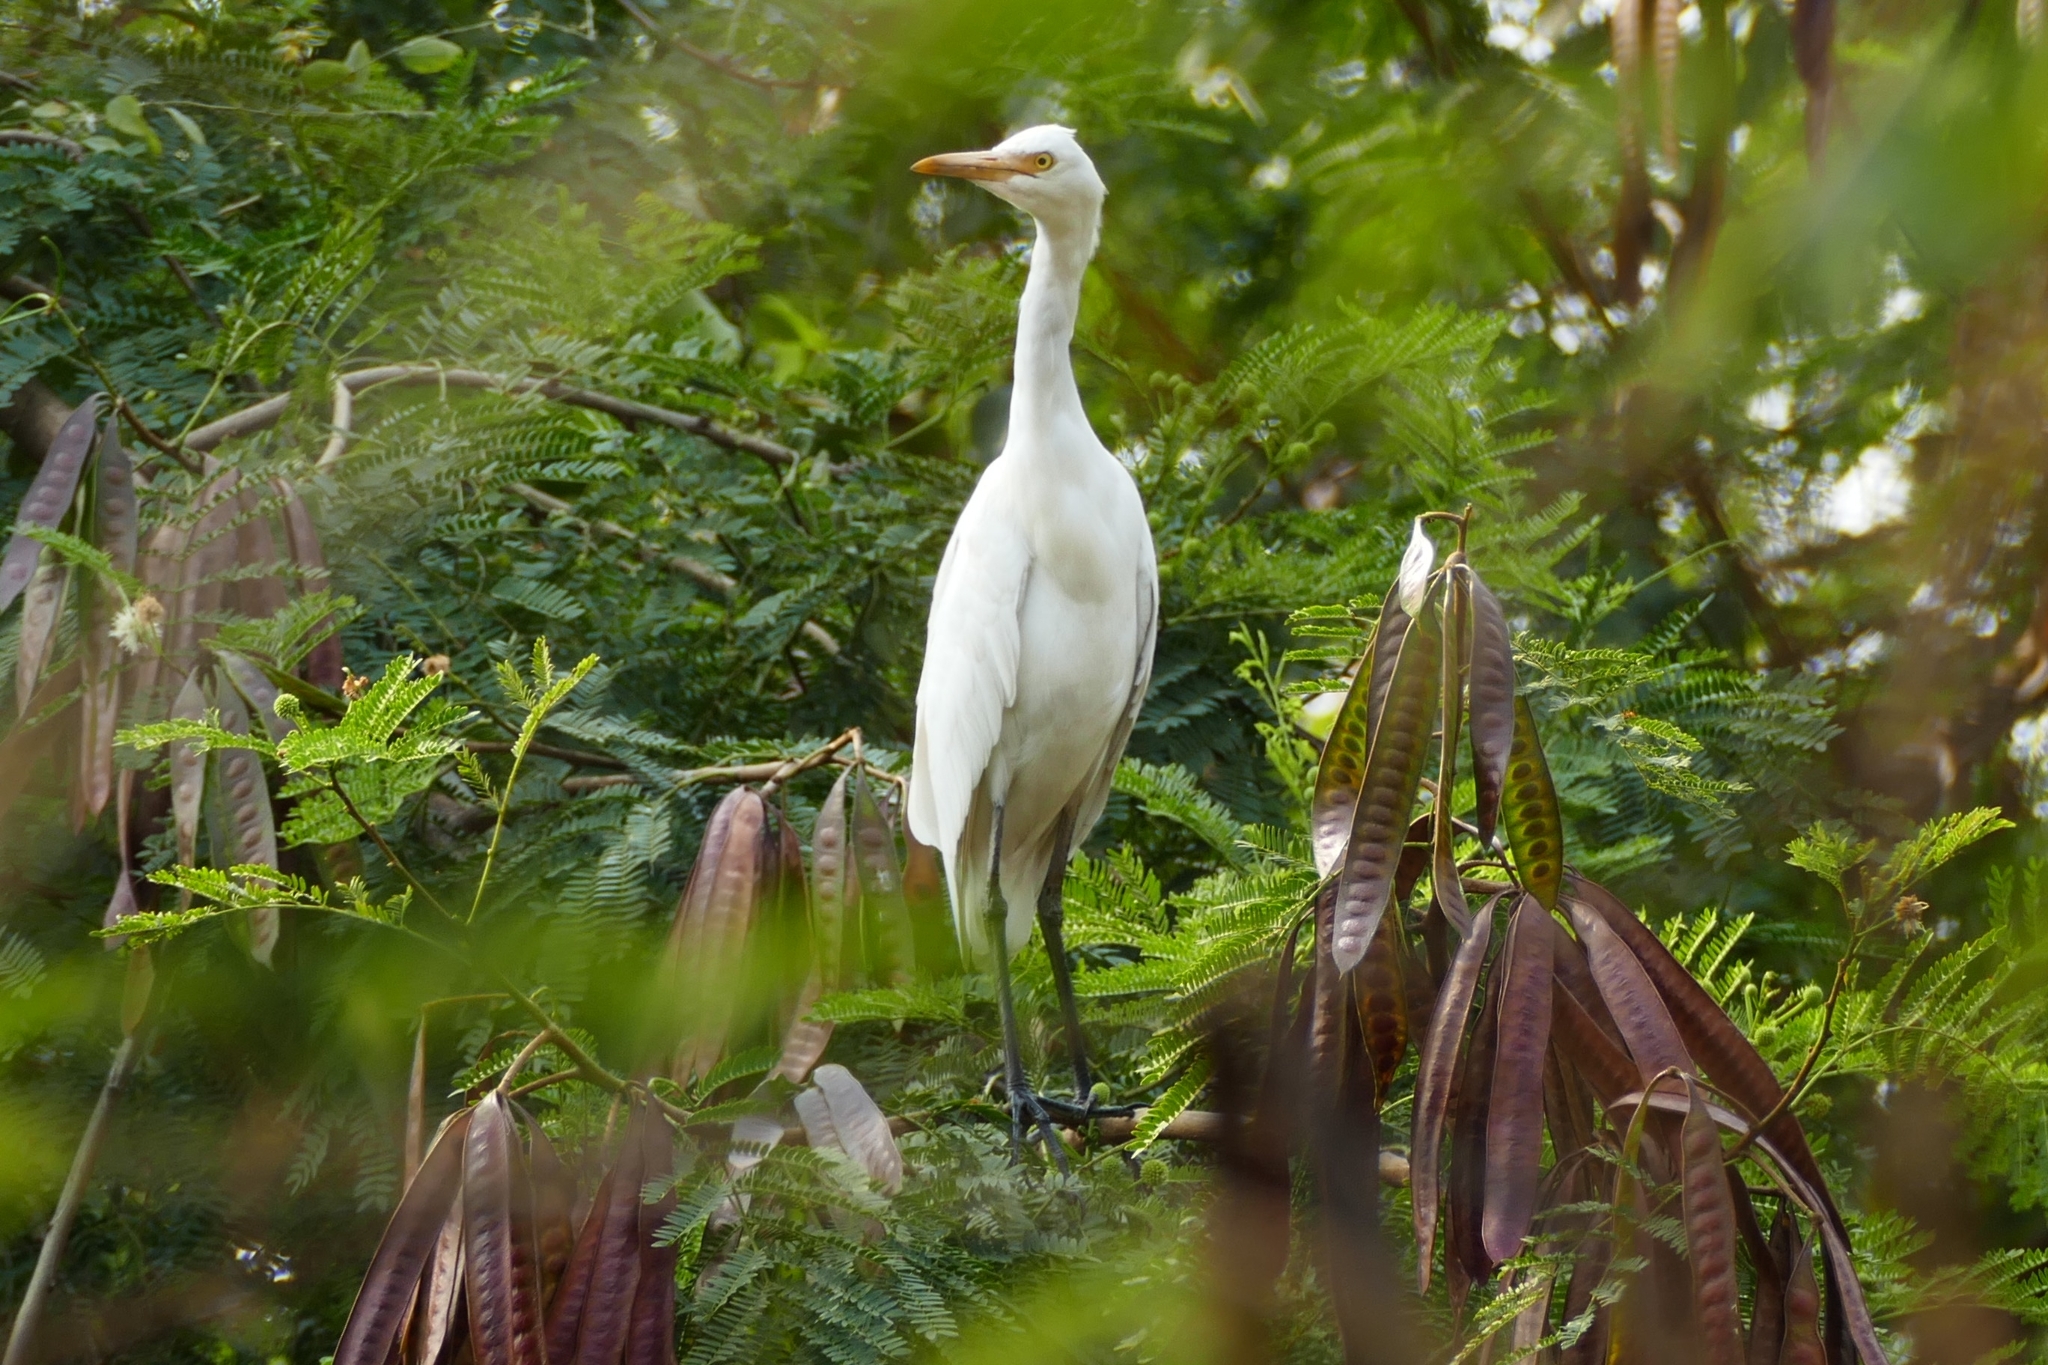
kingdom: Animalia
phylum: Chordata
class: Aves
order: Pelecaniformes
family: Ardeidae
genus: Egretta
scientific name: Egretta intermedia
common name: Intermediate egret
